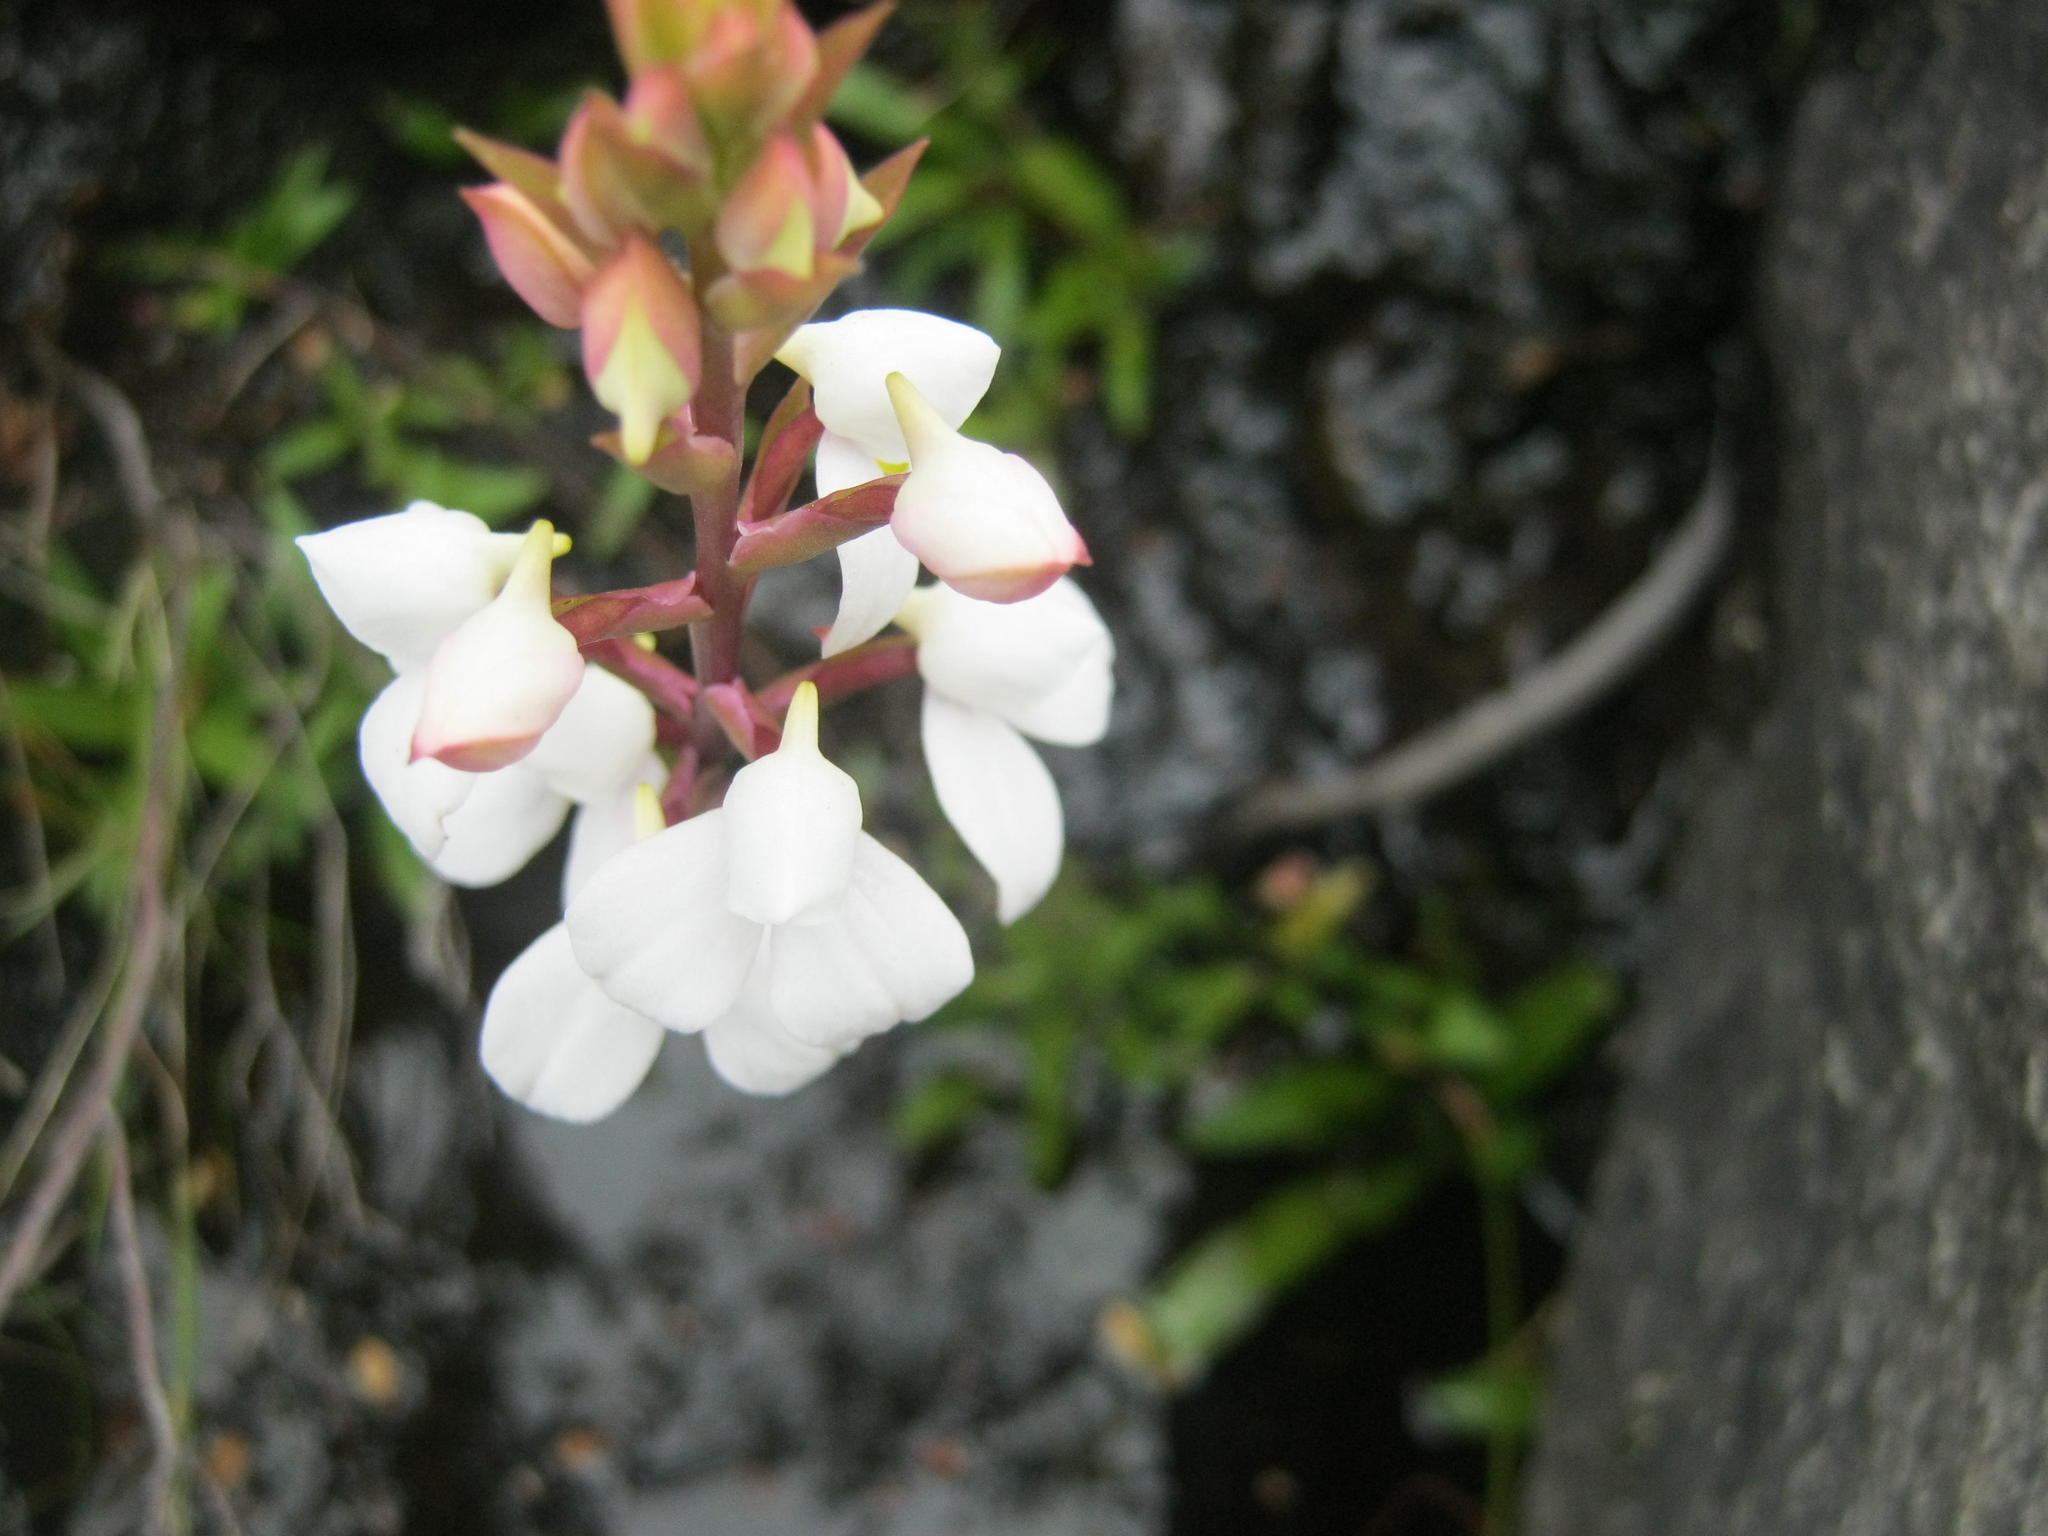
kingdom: Plantae
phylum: Tracheophyta
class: Liliopsida
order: Asparagales
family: Orchidaceae
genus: Disa
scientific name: Disa tripetaloides
